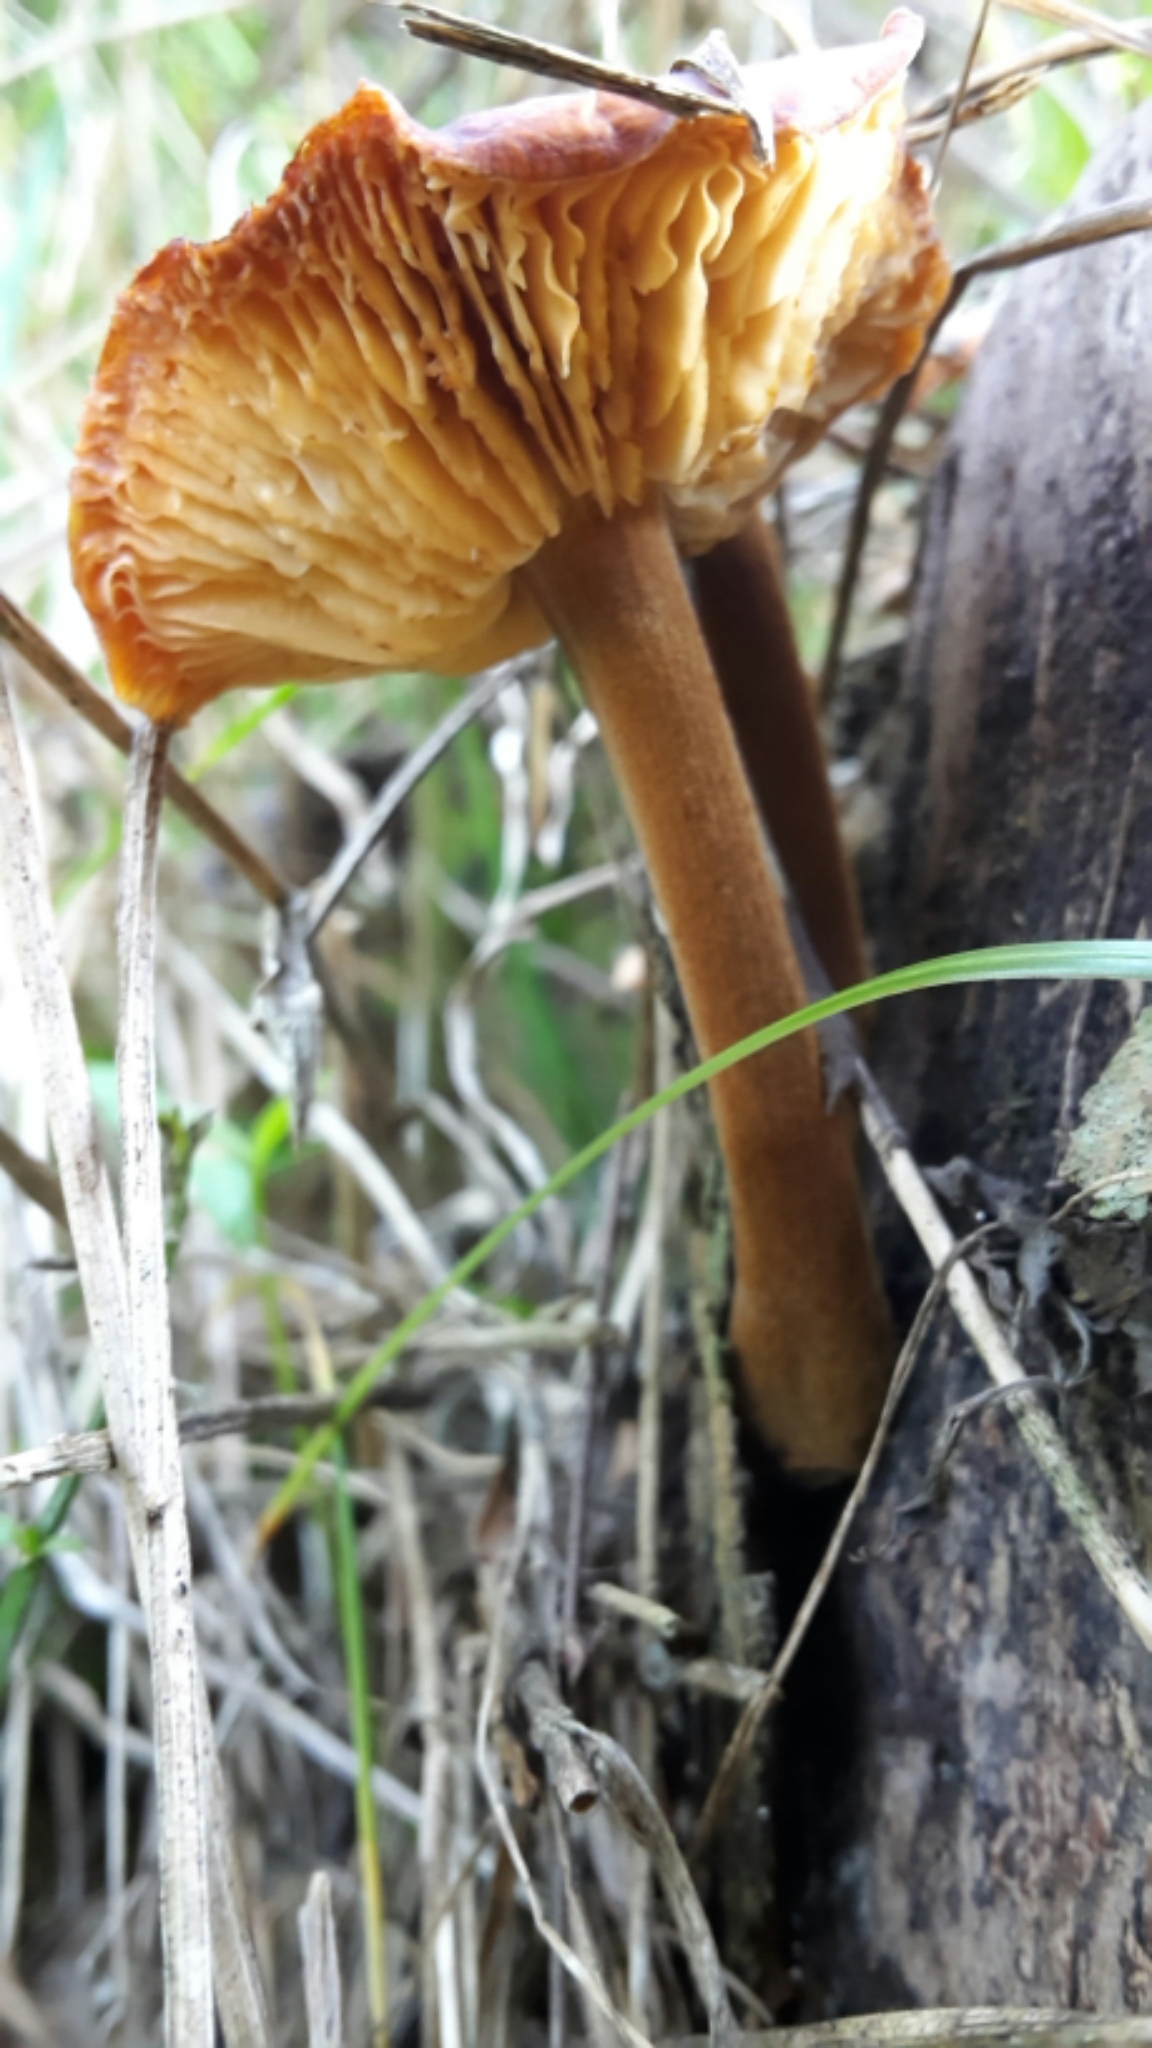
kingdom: Fungi
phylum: Basidiomycota
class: Agaricomycetes
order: Agaricales
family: Mycenaceae
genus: Heimiomyces
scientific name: Heimiomyces velutipes
